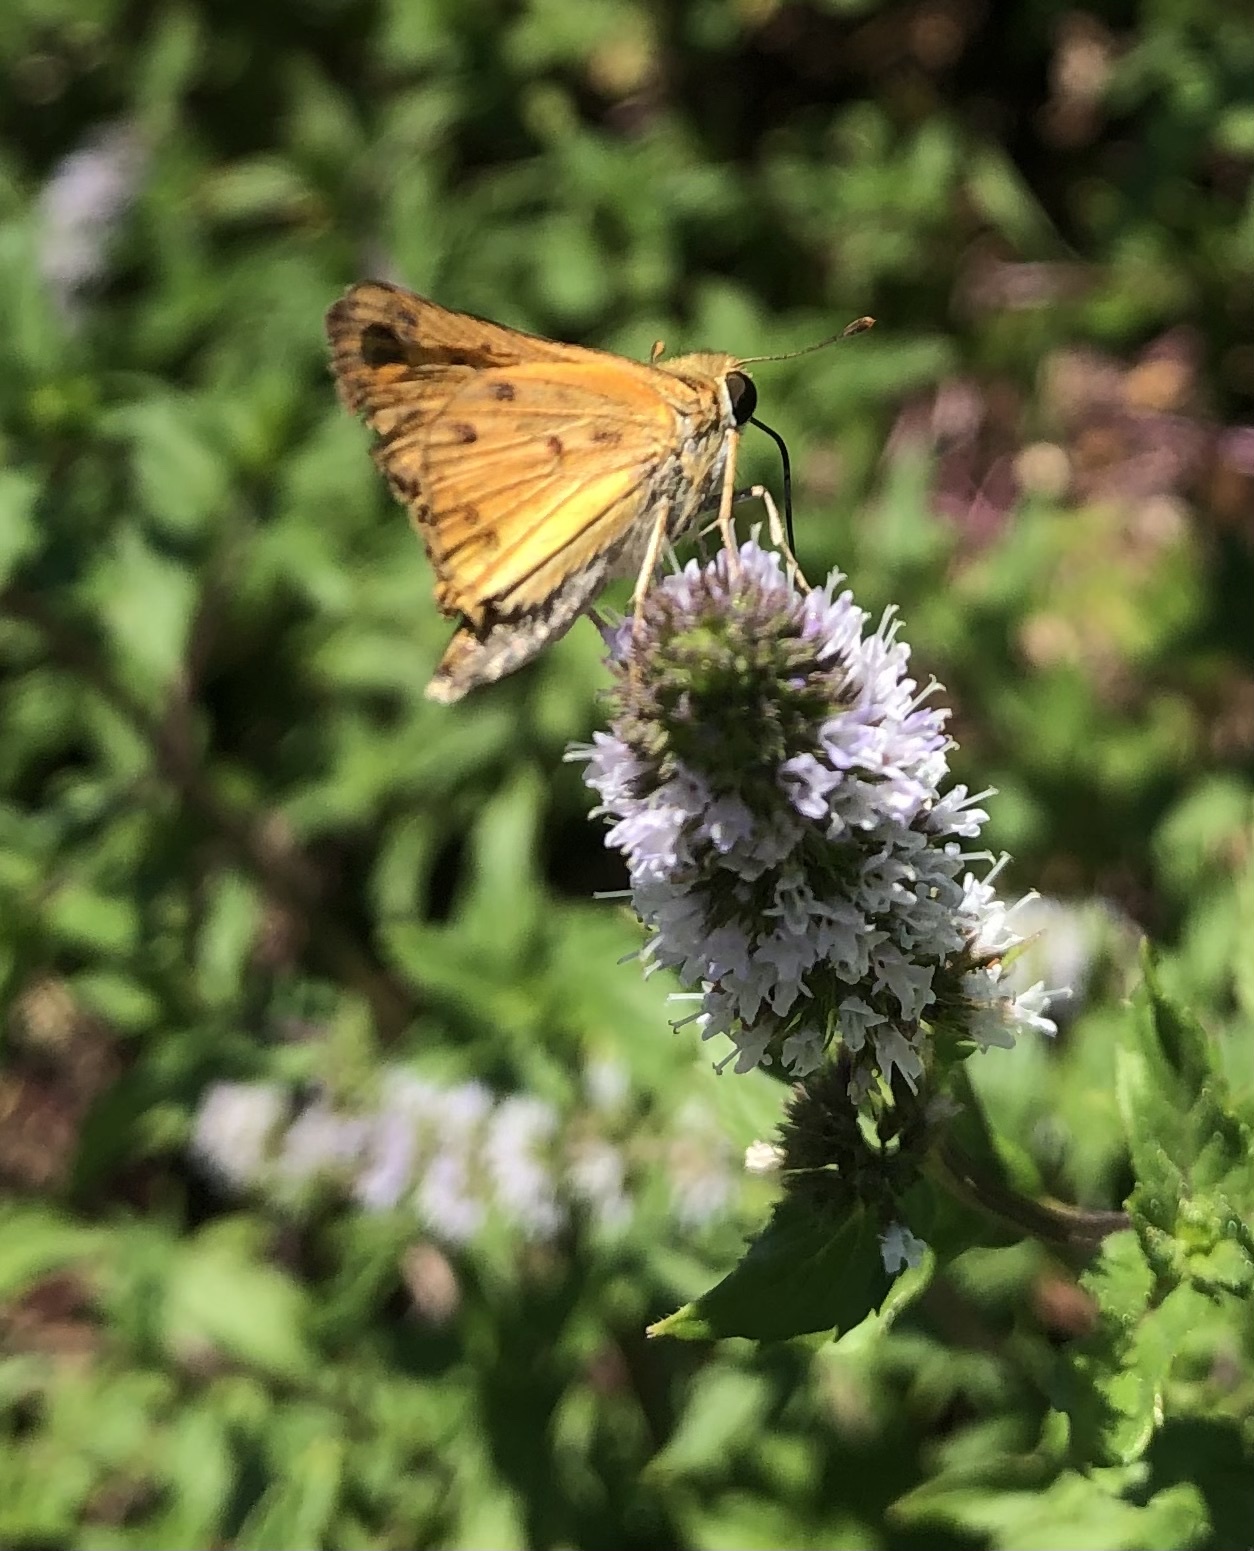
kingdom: Animalia
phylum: Arthropoda
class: Insecta
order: Lepidoptera
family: Hesperiidae
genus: Hylephila
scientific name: Hylephila phyleus
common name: Fiery skipper
